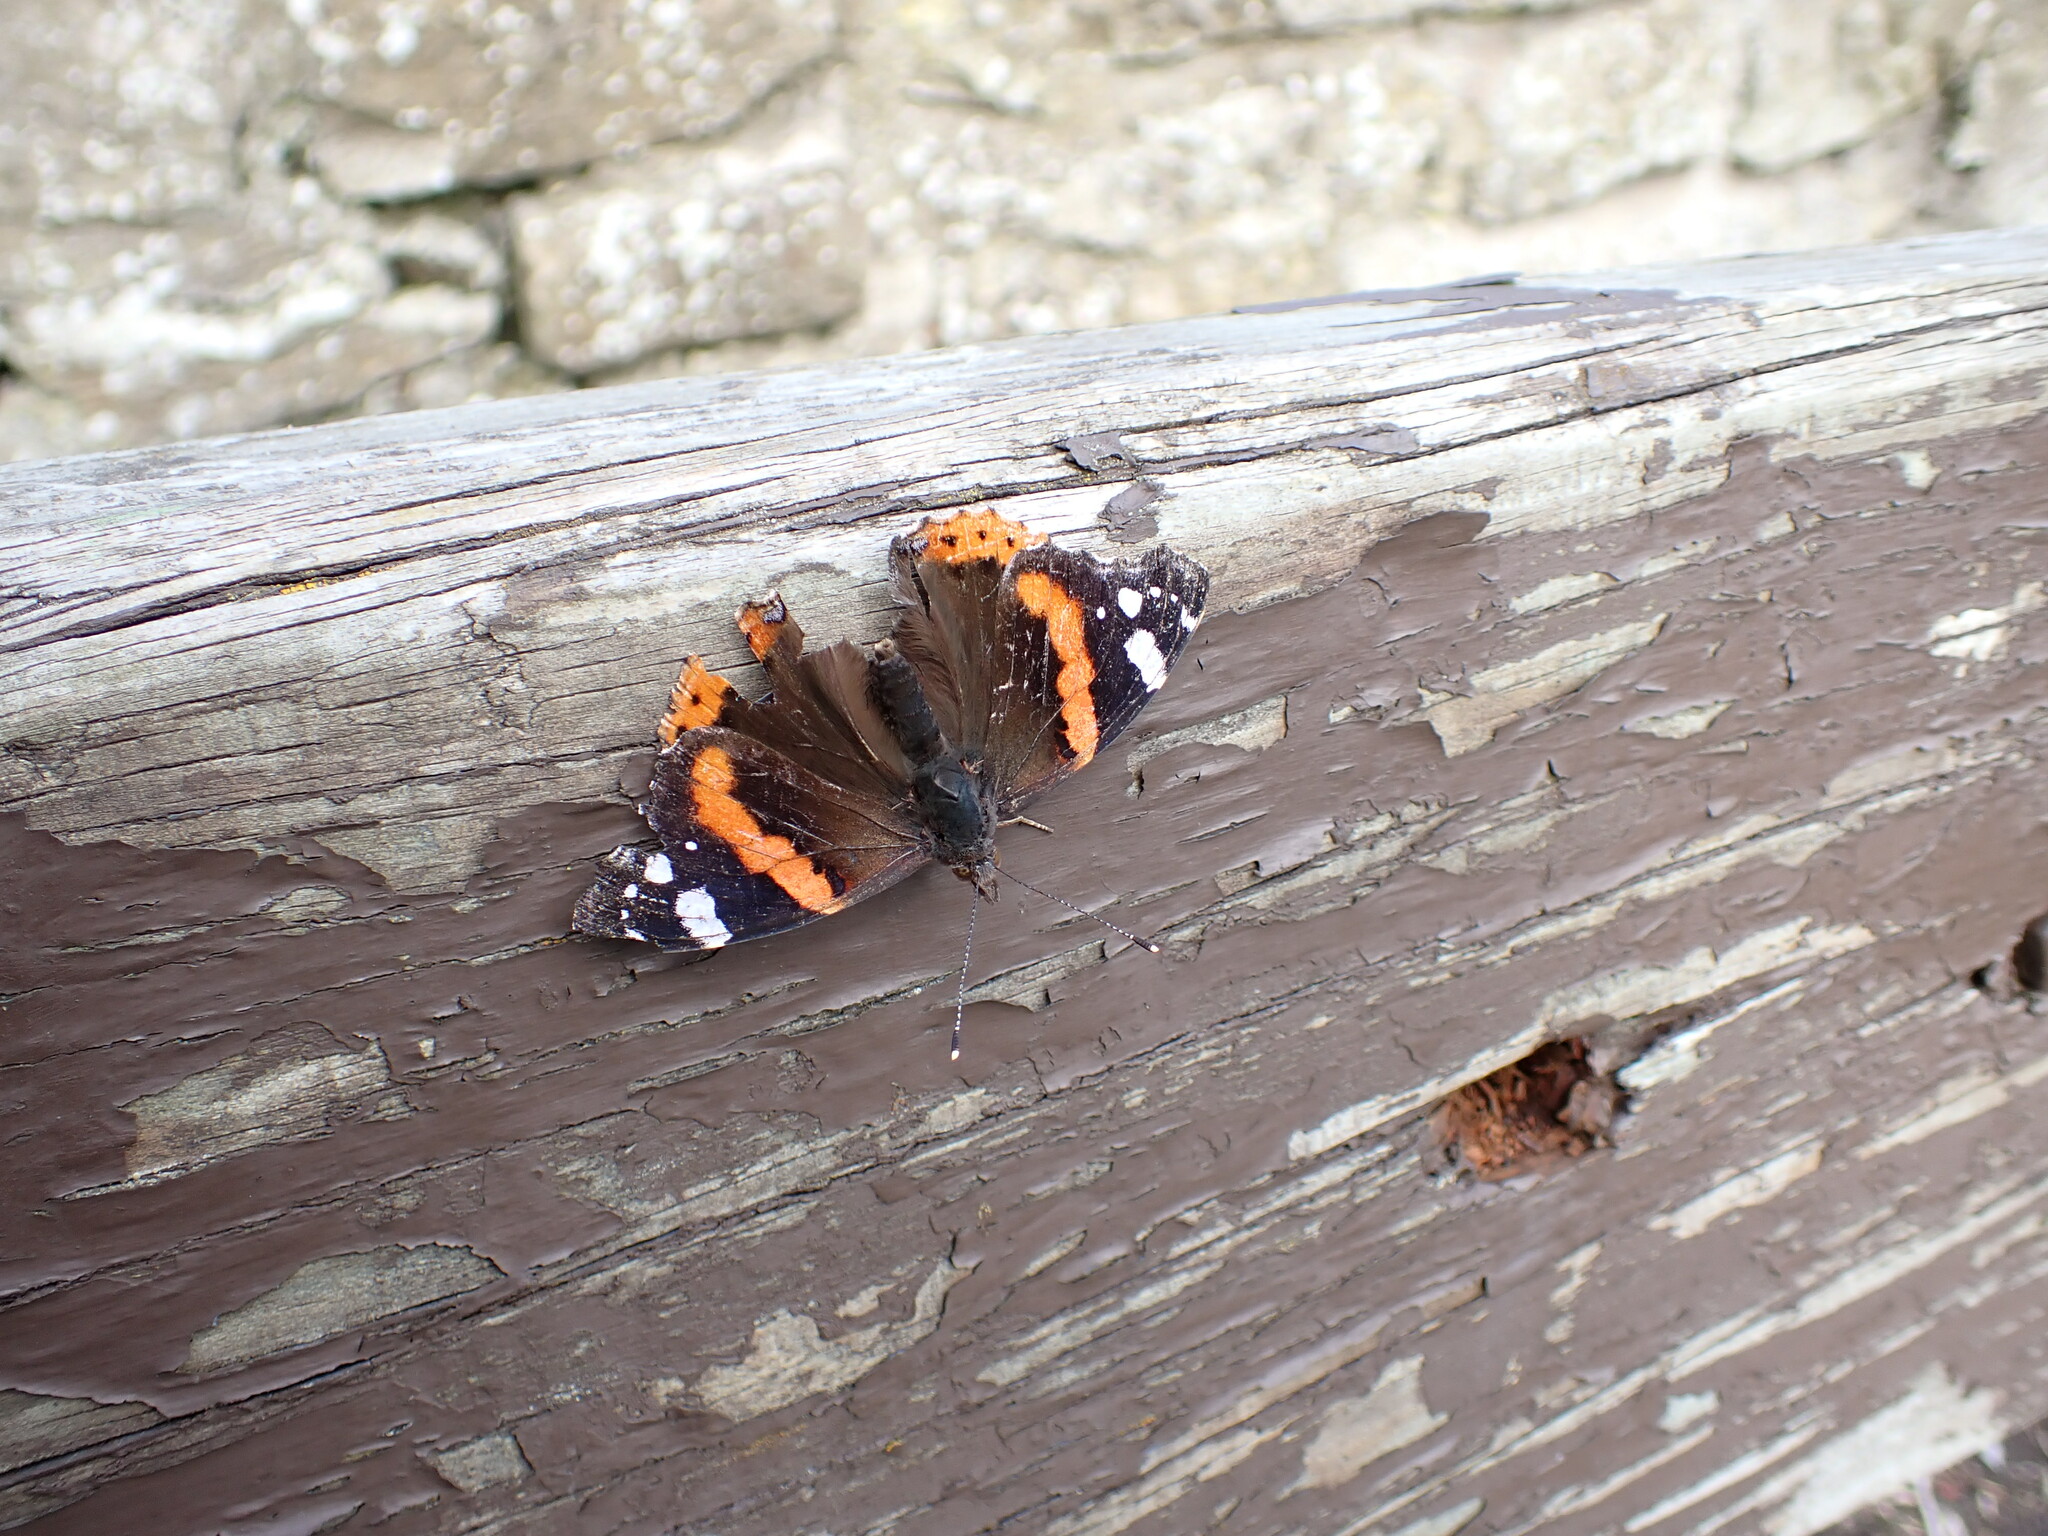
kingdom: Animalia
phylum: Arthropoda
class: Insecta
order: Lepidoptera
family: Nymphalidae
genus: Vanessa
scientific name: Vanessa atalanta
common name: Red admiral
